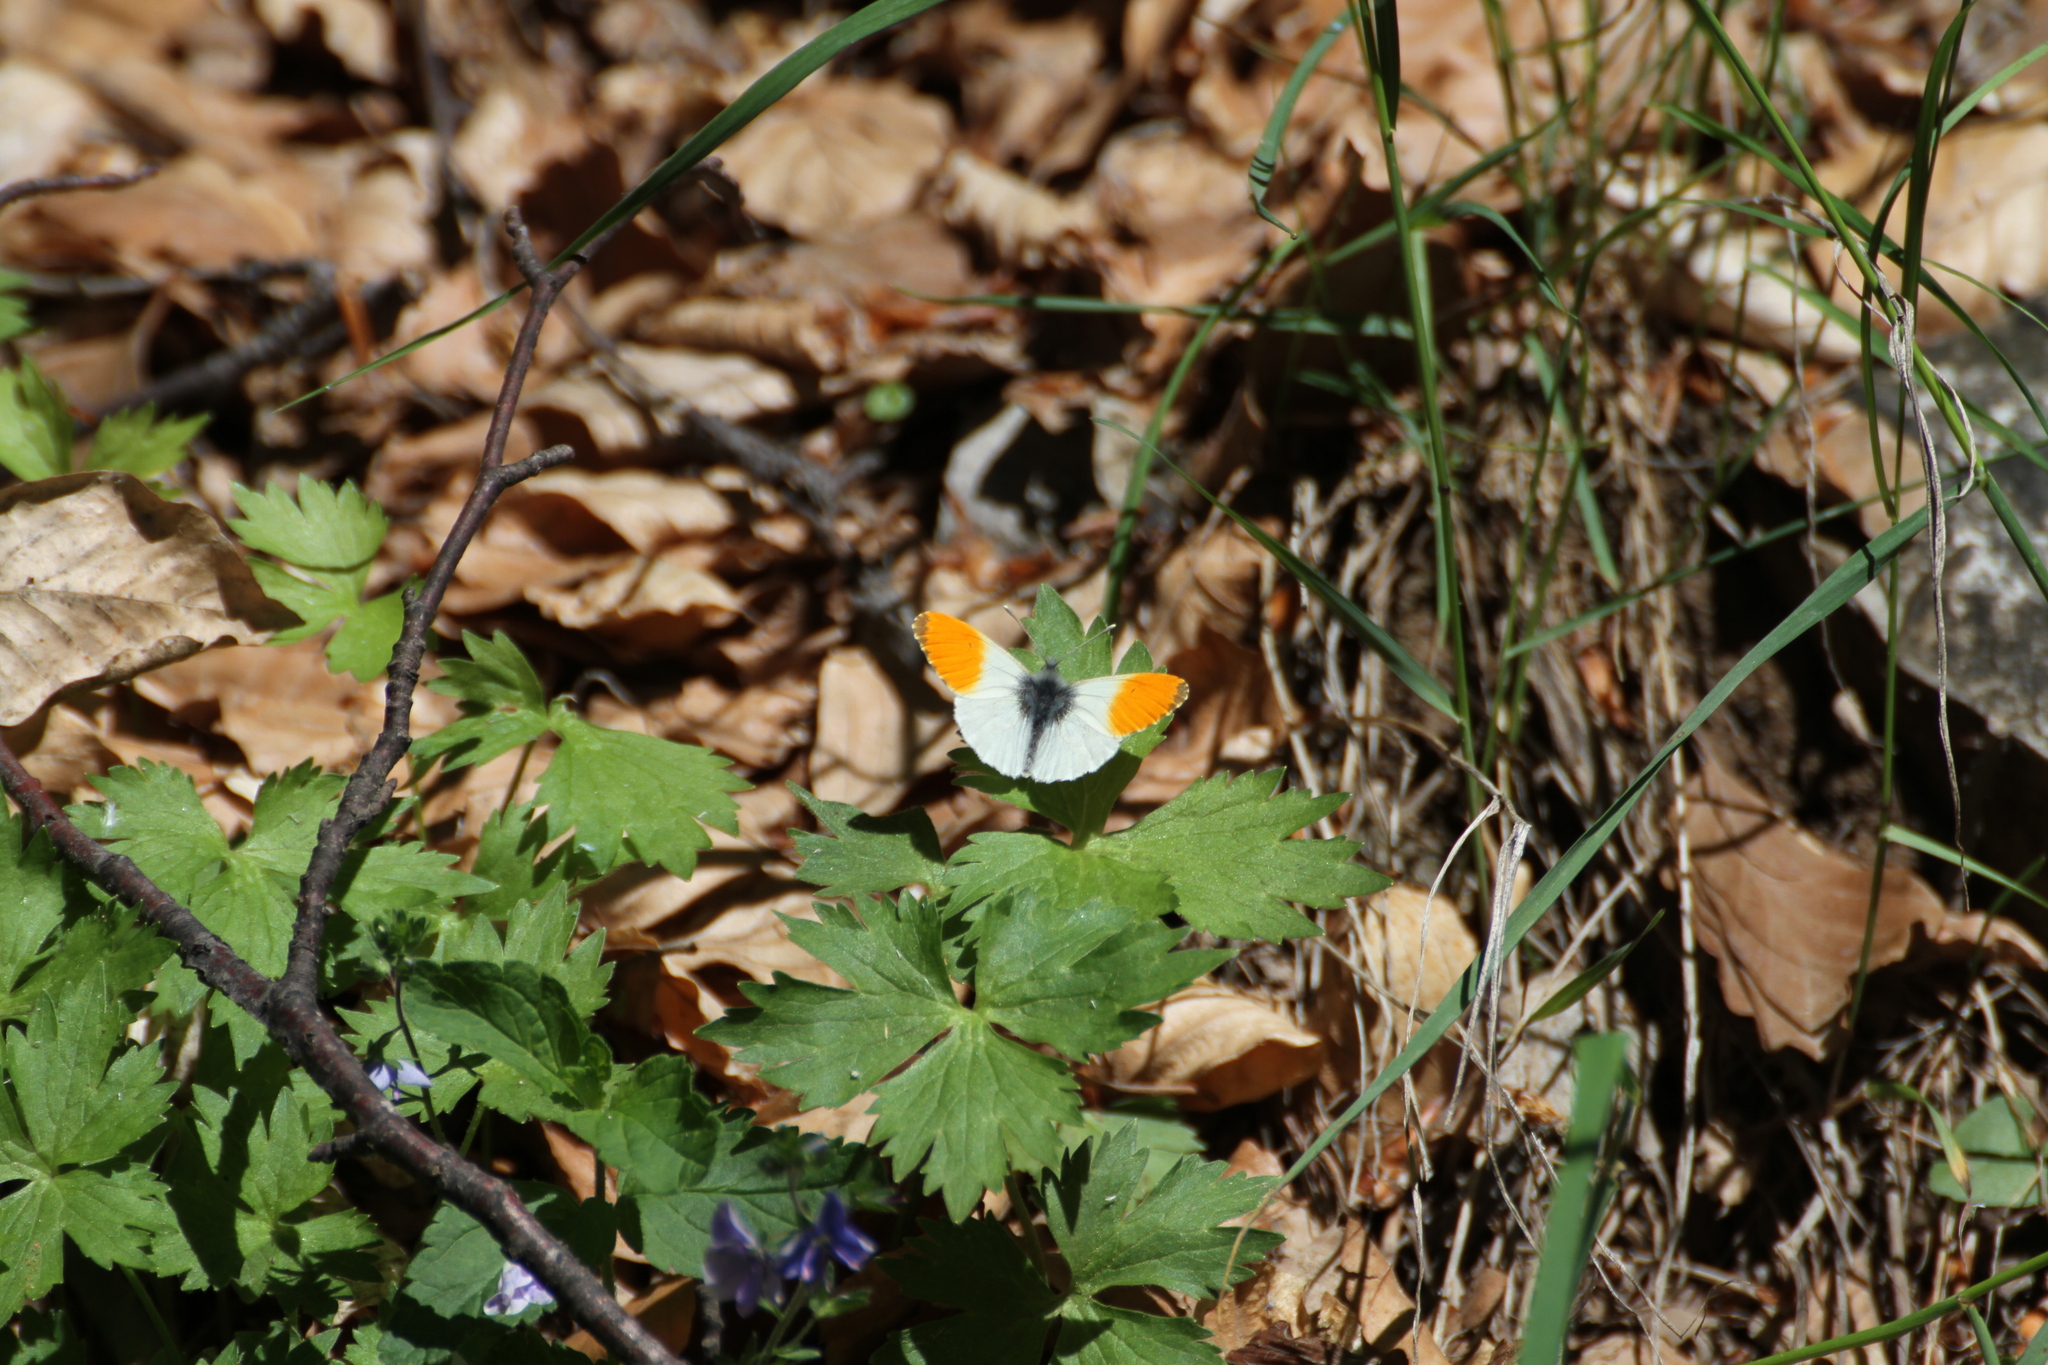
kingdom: Animalia
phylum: Arthropoda
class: Insecta
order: Lepidoptera
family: Pieridae
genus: Anthocharis
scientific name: Anthocharis cardamines
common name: Orange-tip
